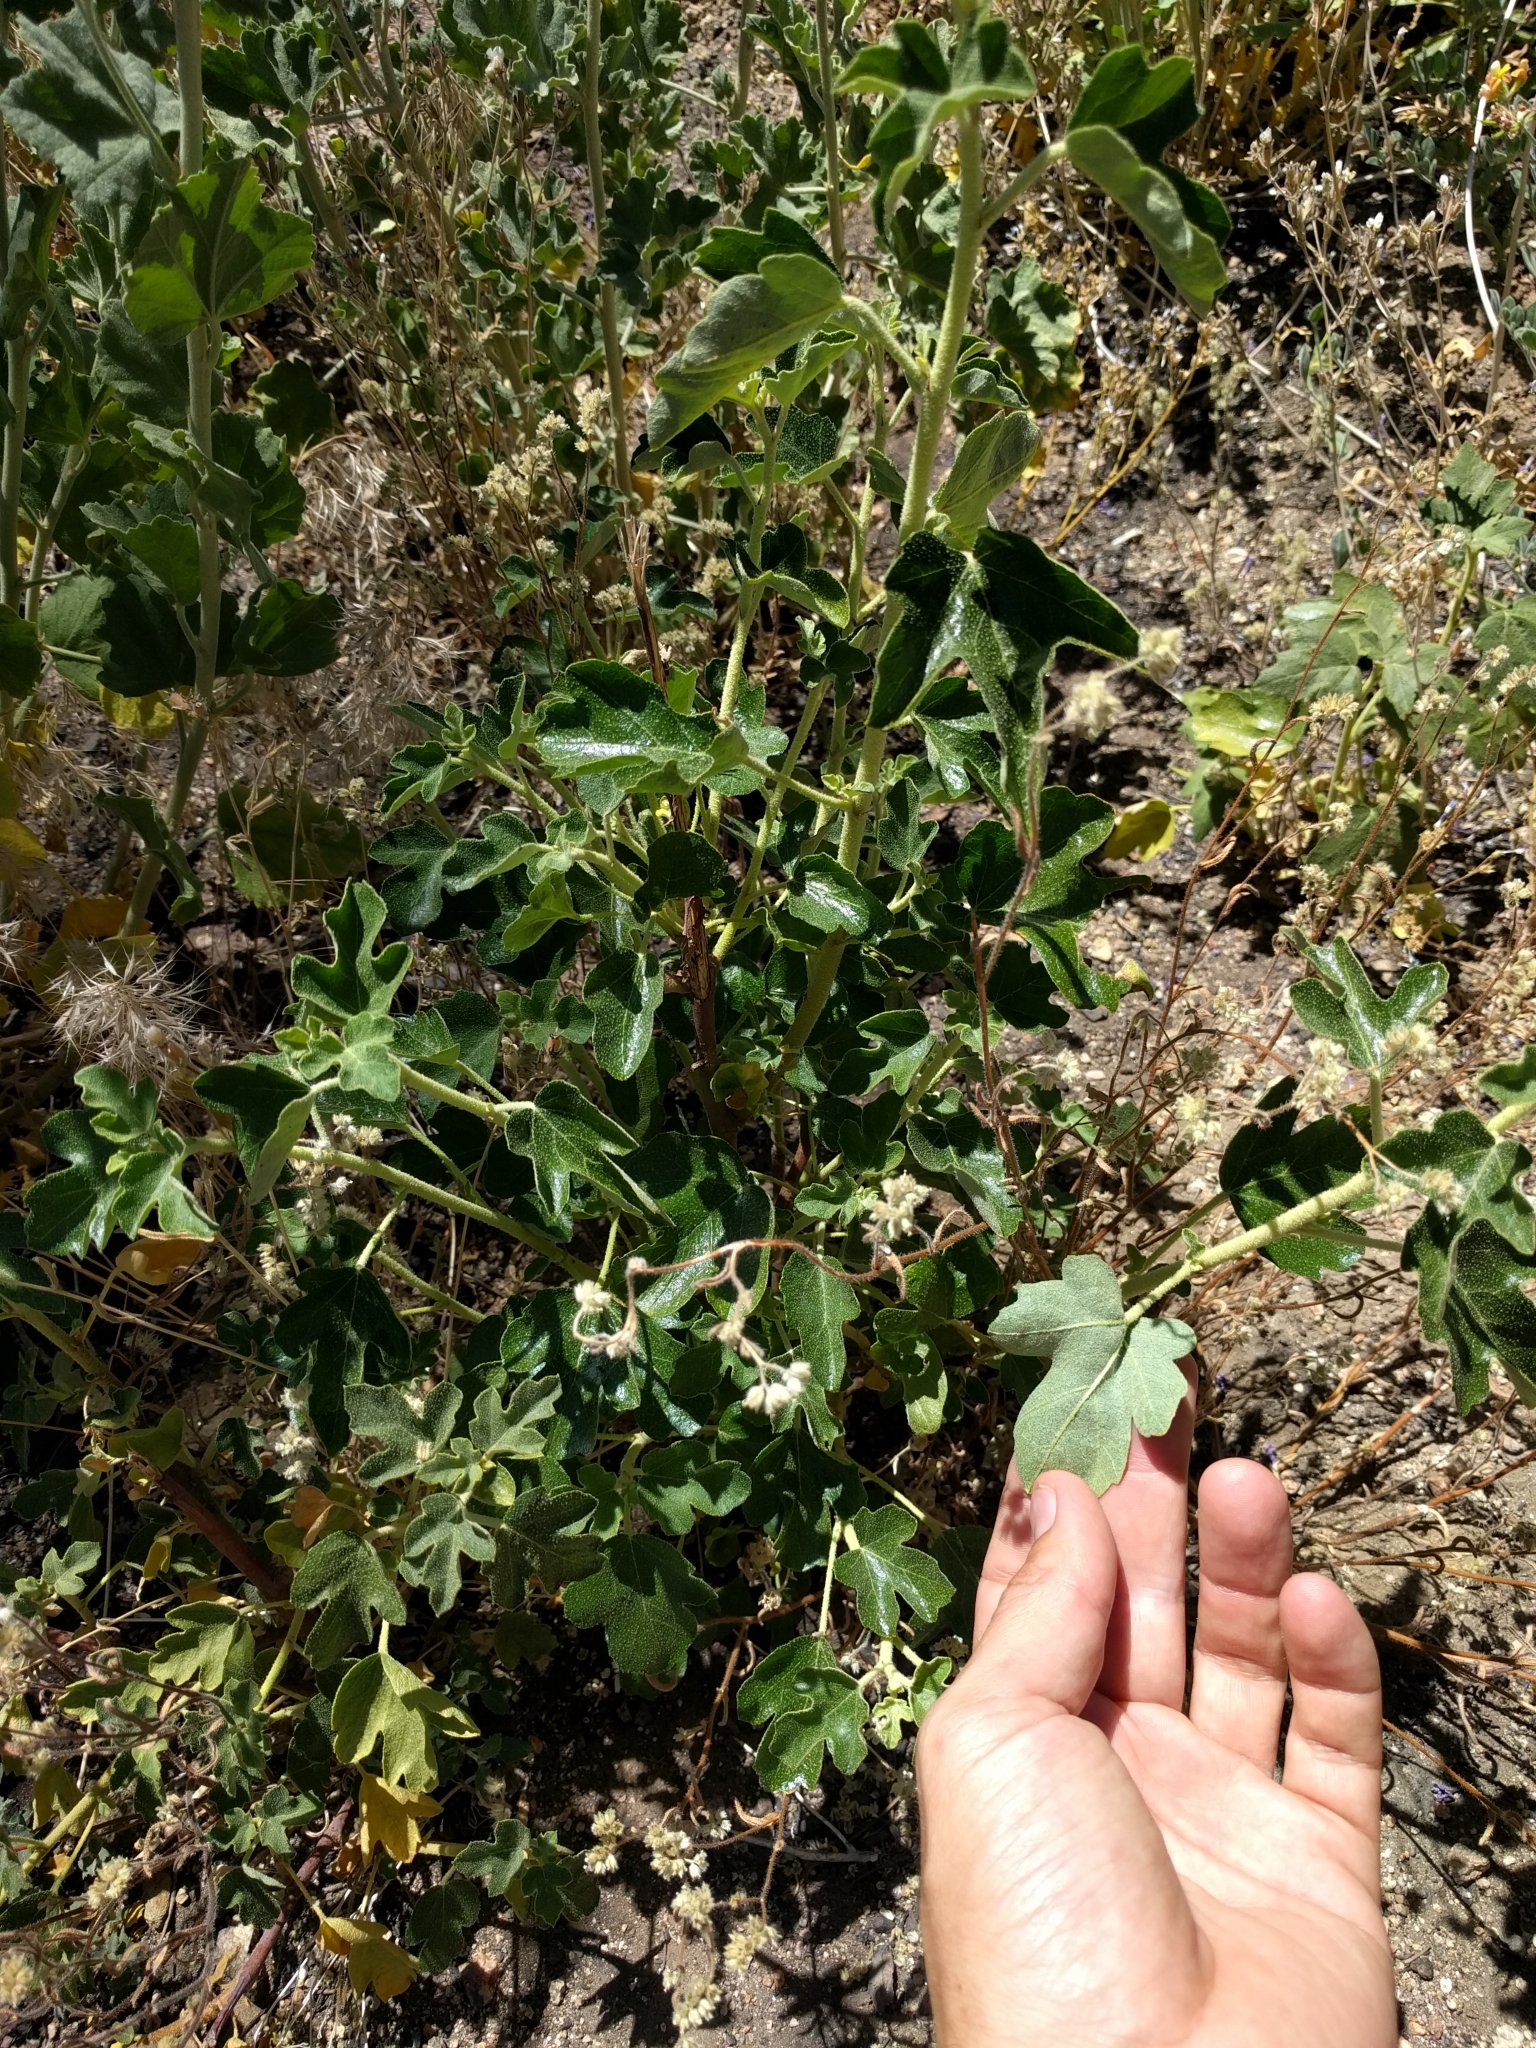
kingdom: Plantae
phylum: Tracheophyta
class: Magnoliopsida
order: Malvales
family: Malvaceae
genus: Fremontodendron
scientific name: Fremontodendron californicum
